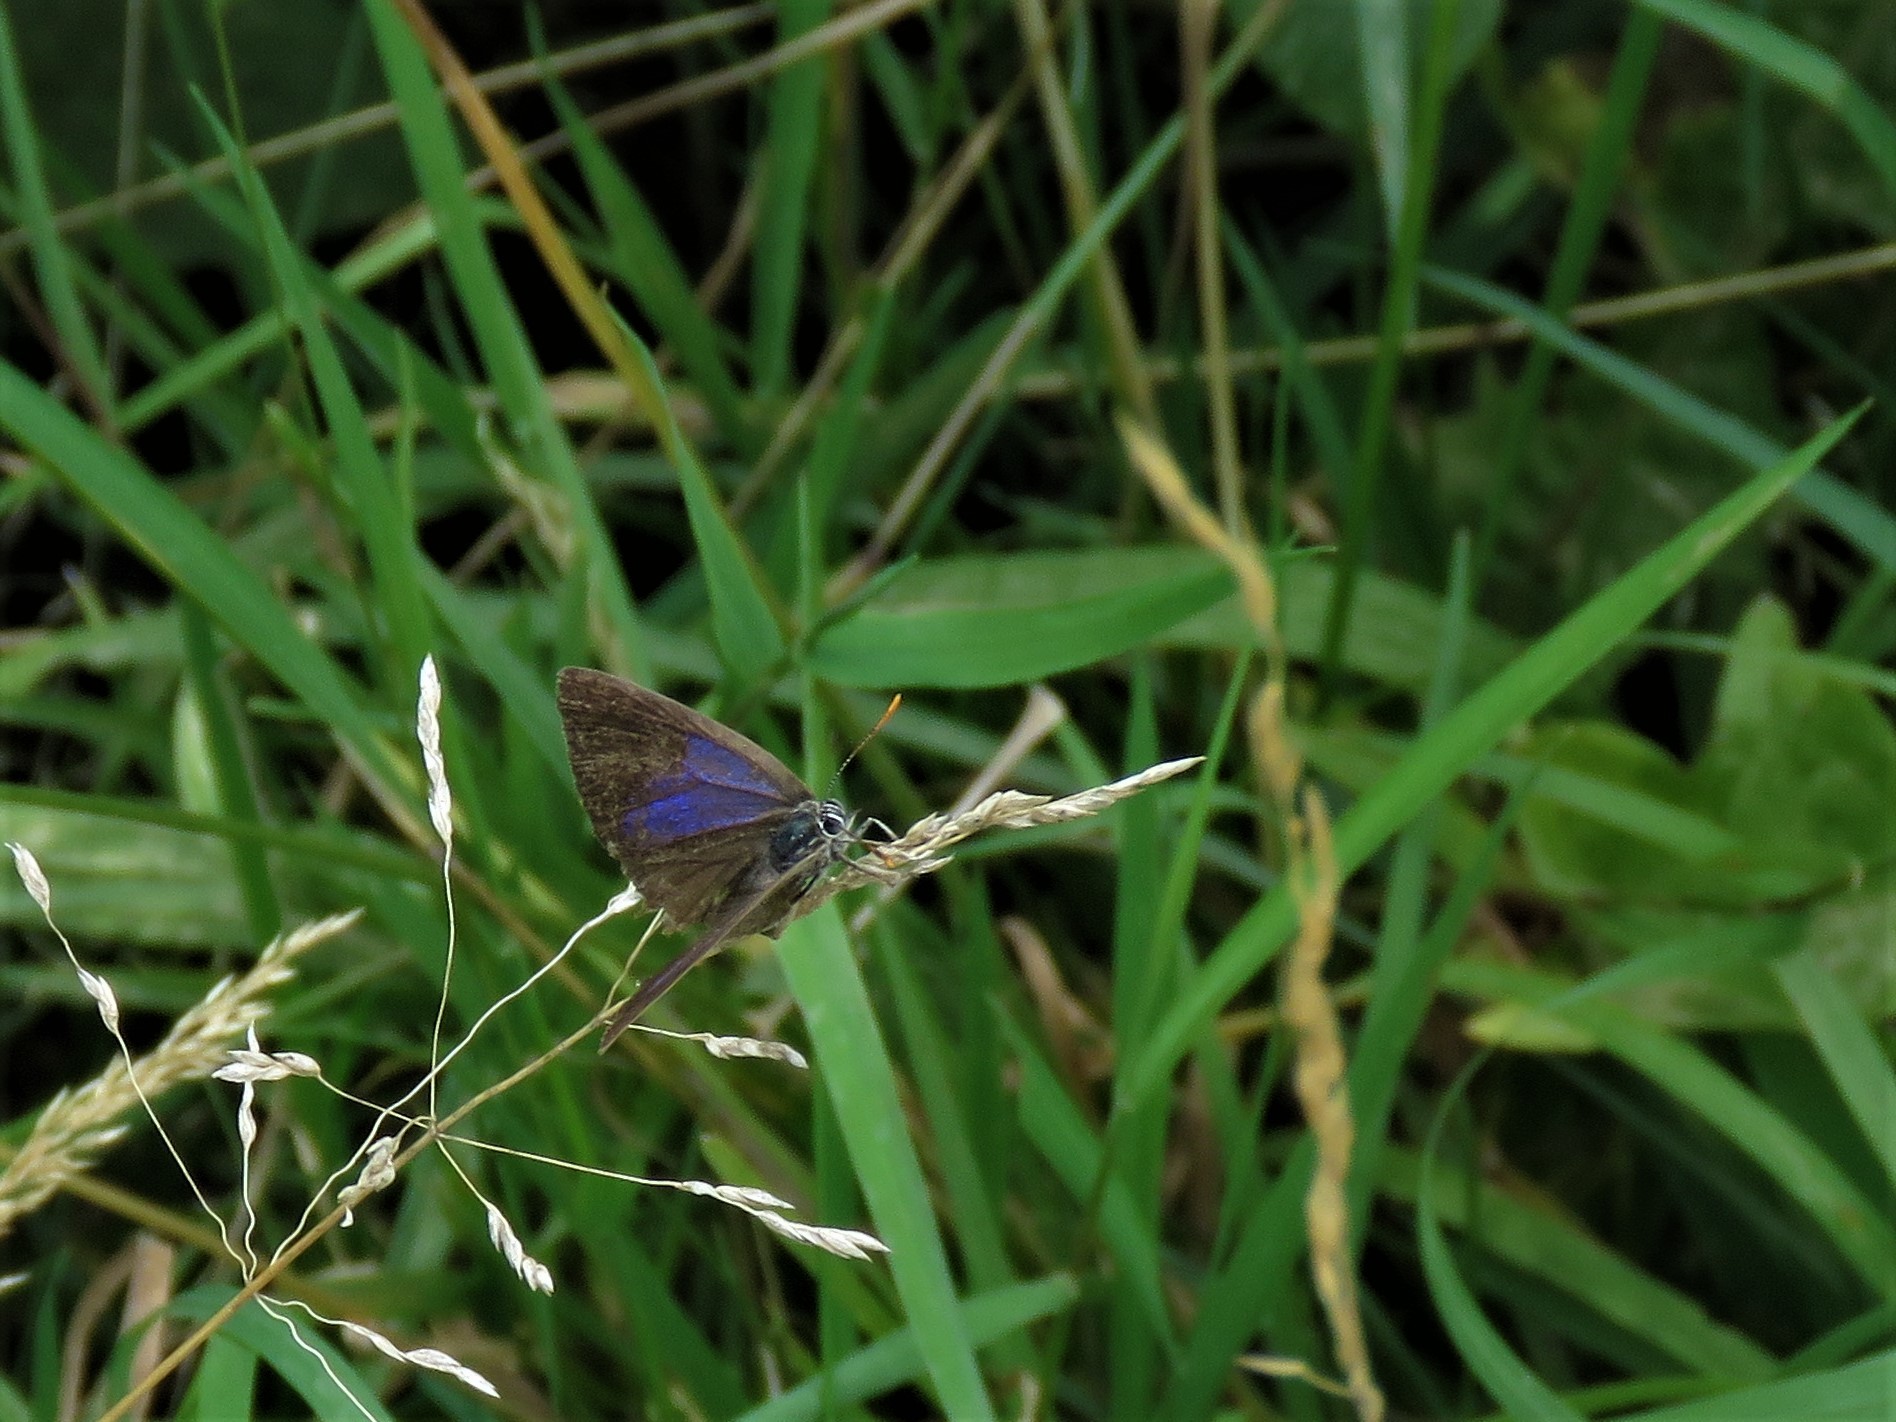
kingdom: Animalia
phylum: Arthropoda
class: Insecta
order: Lepidoptera
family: Lycaenidae
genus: Quercusia
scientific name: Quercusia quercus
